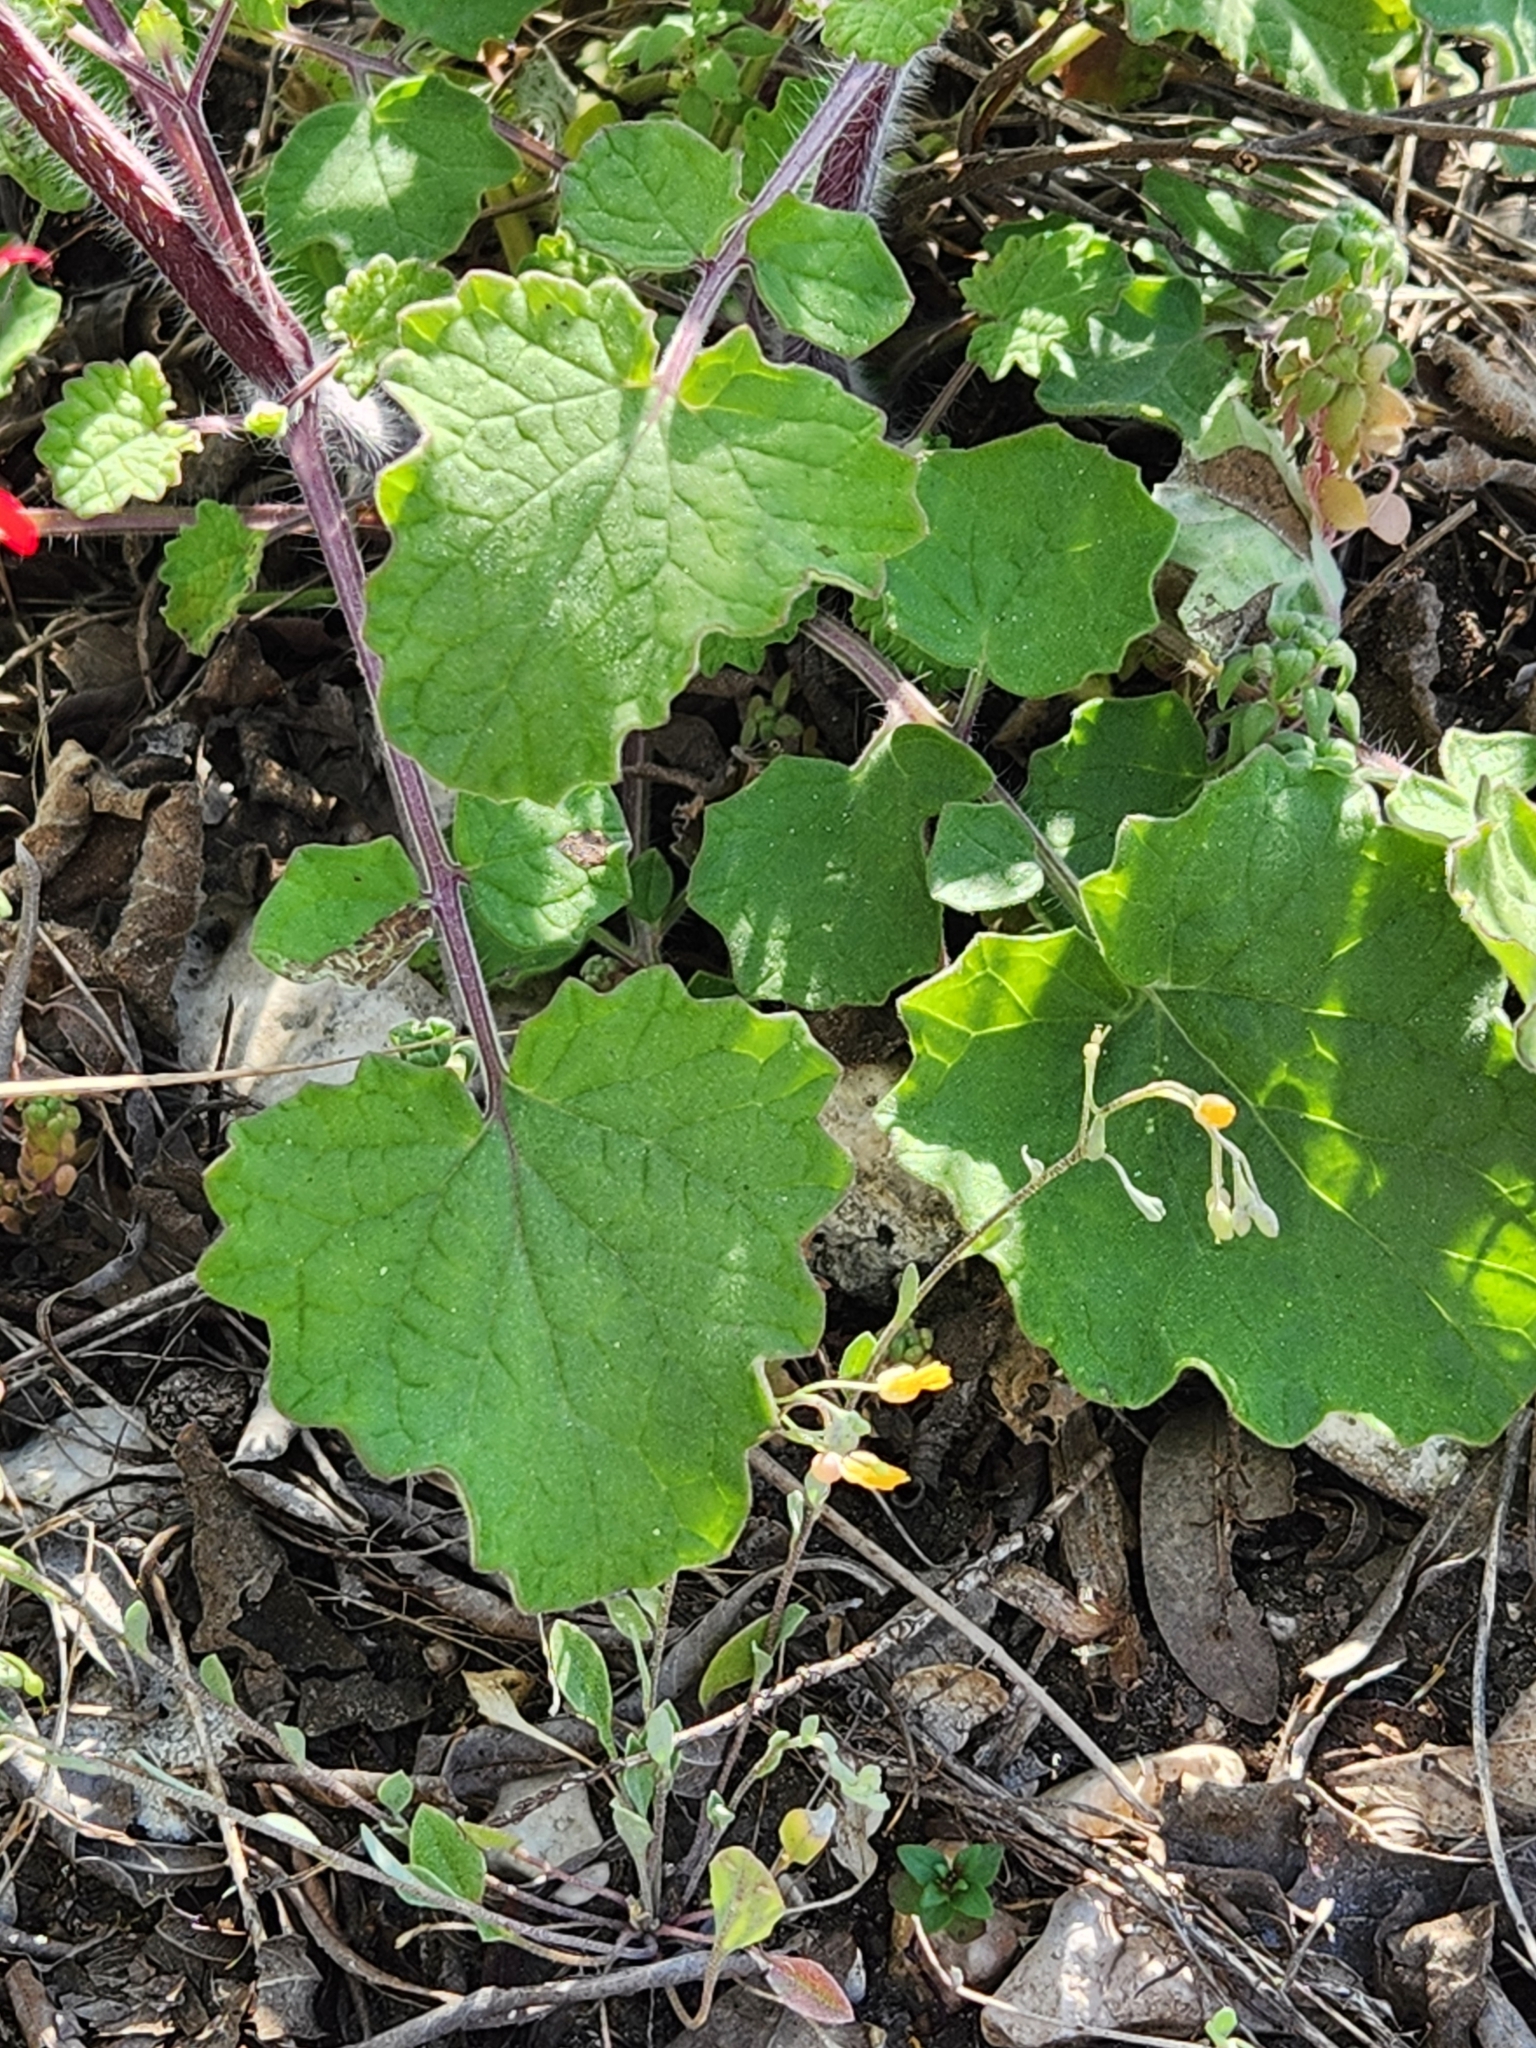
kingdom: Plantae
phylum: Tracheophyta
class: Magnoliopsida
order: Lamiales
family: Lamiaceae
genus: Salvia
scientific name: Salvia roemeriana
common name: Cedar sage
